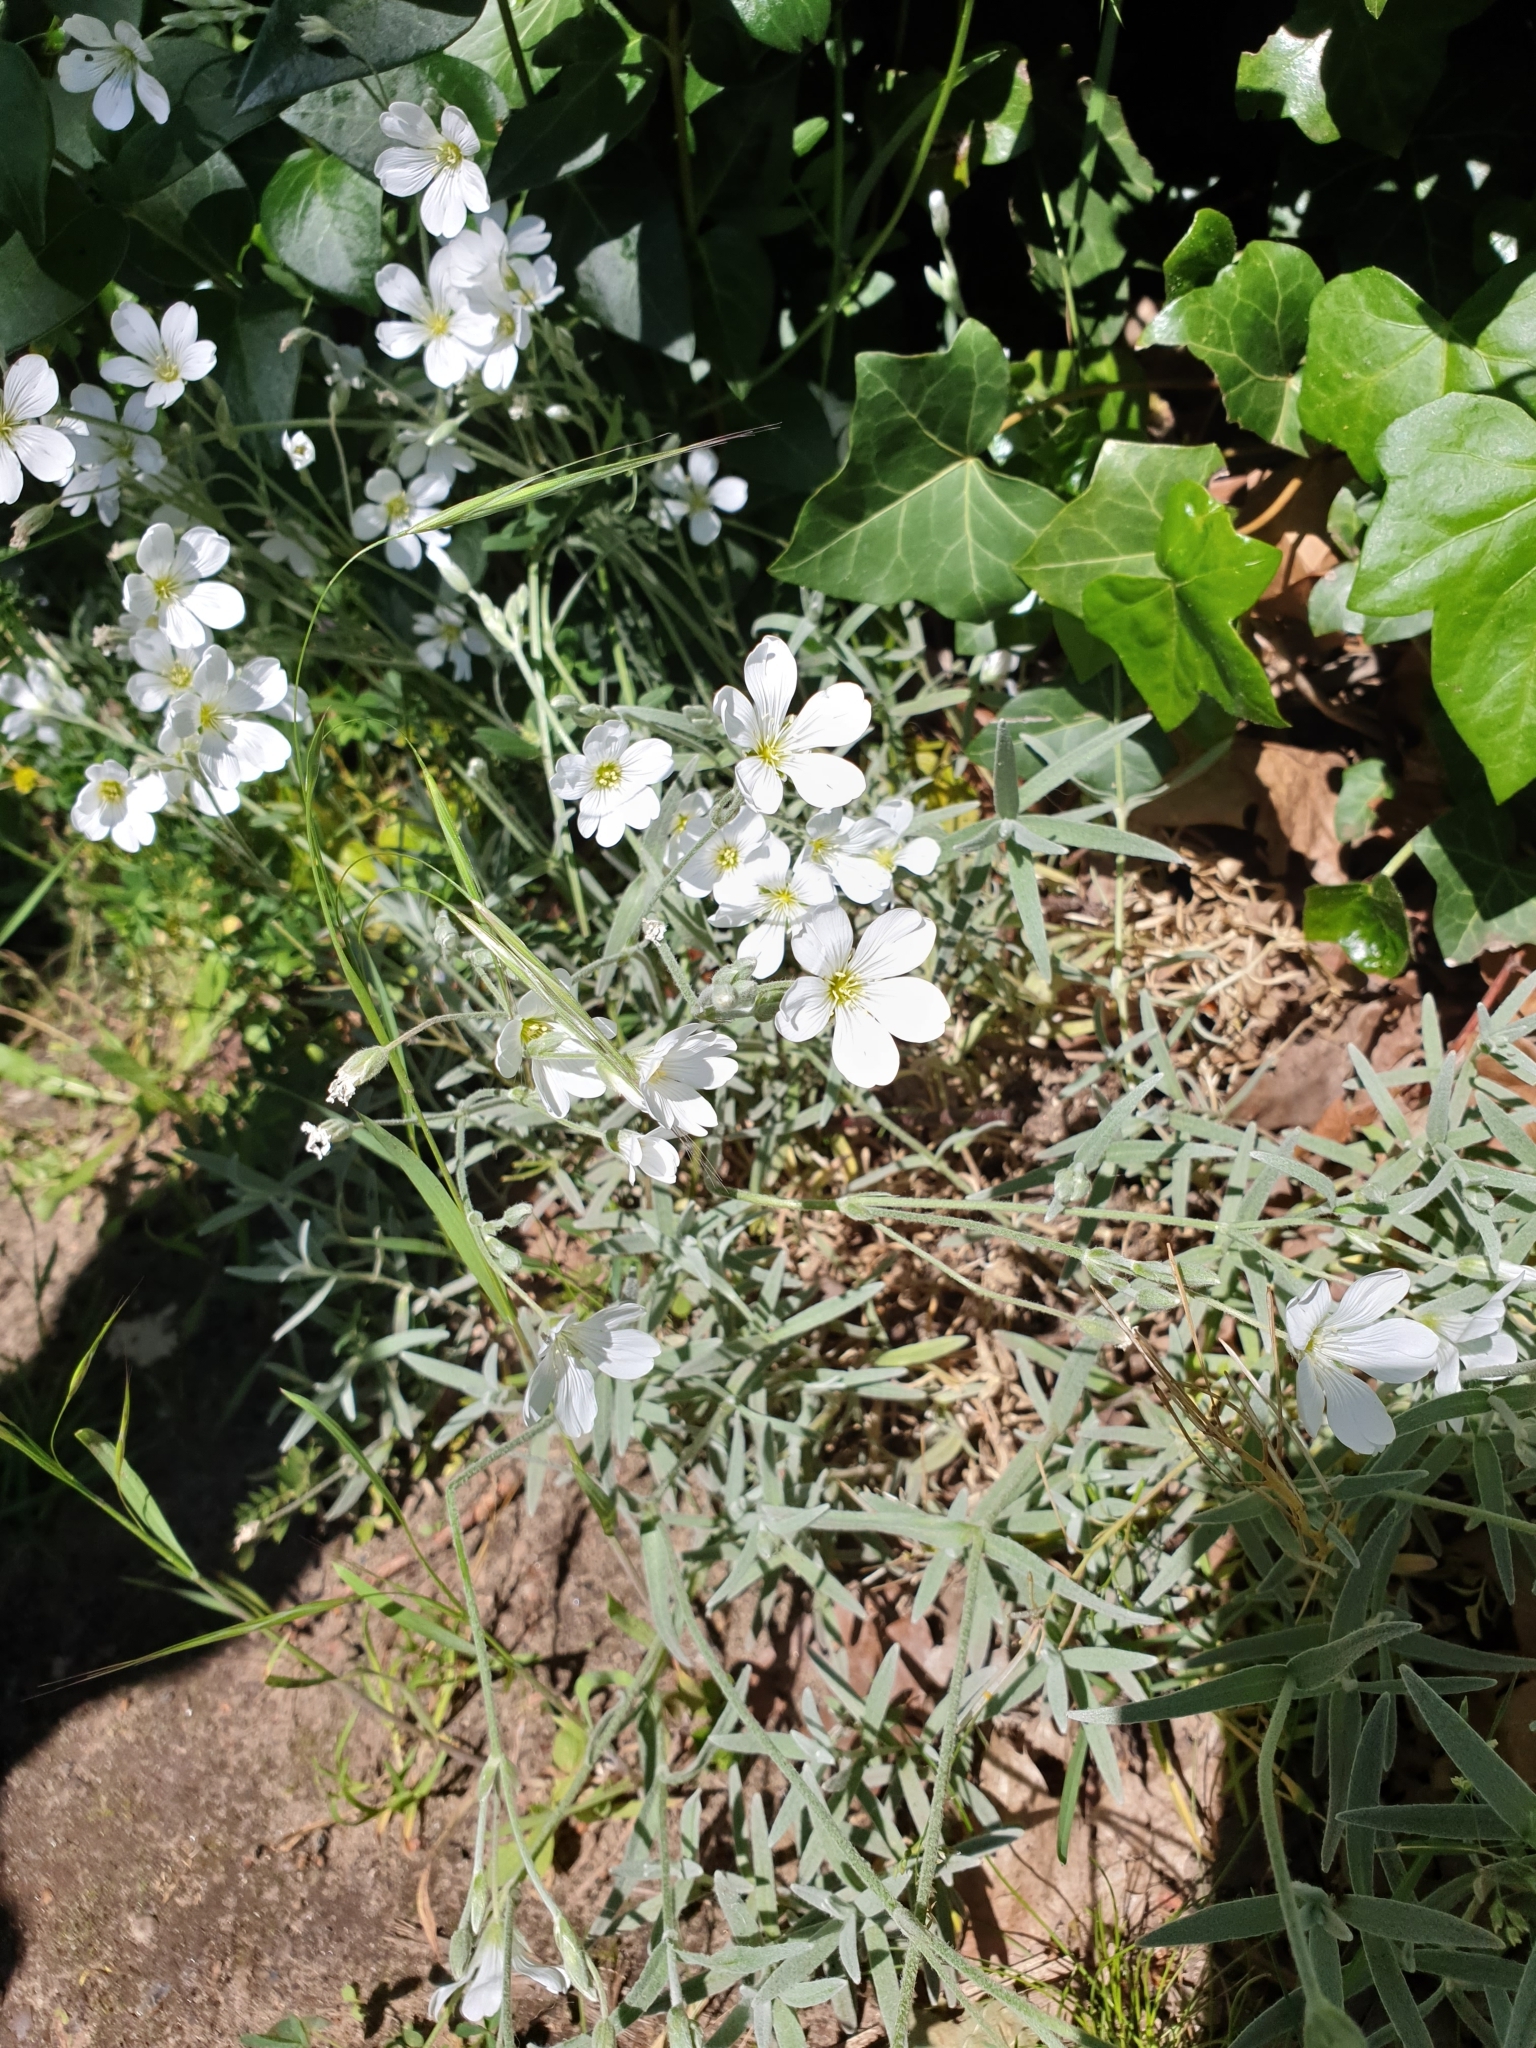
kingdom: Plantae
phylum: Tracheophyta
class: Magnoliopsida
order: Caryophyllales
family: Caryophyllaceae
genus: Cerastium
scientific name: Cerastium tomentosum
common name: Snow-in-summer
